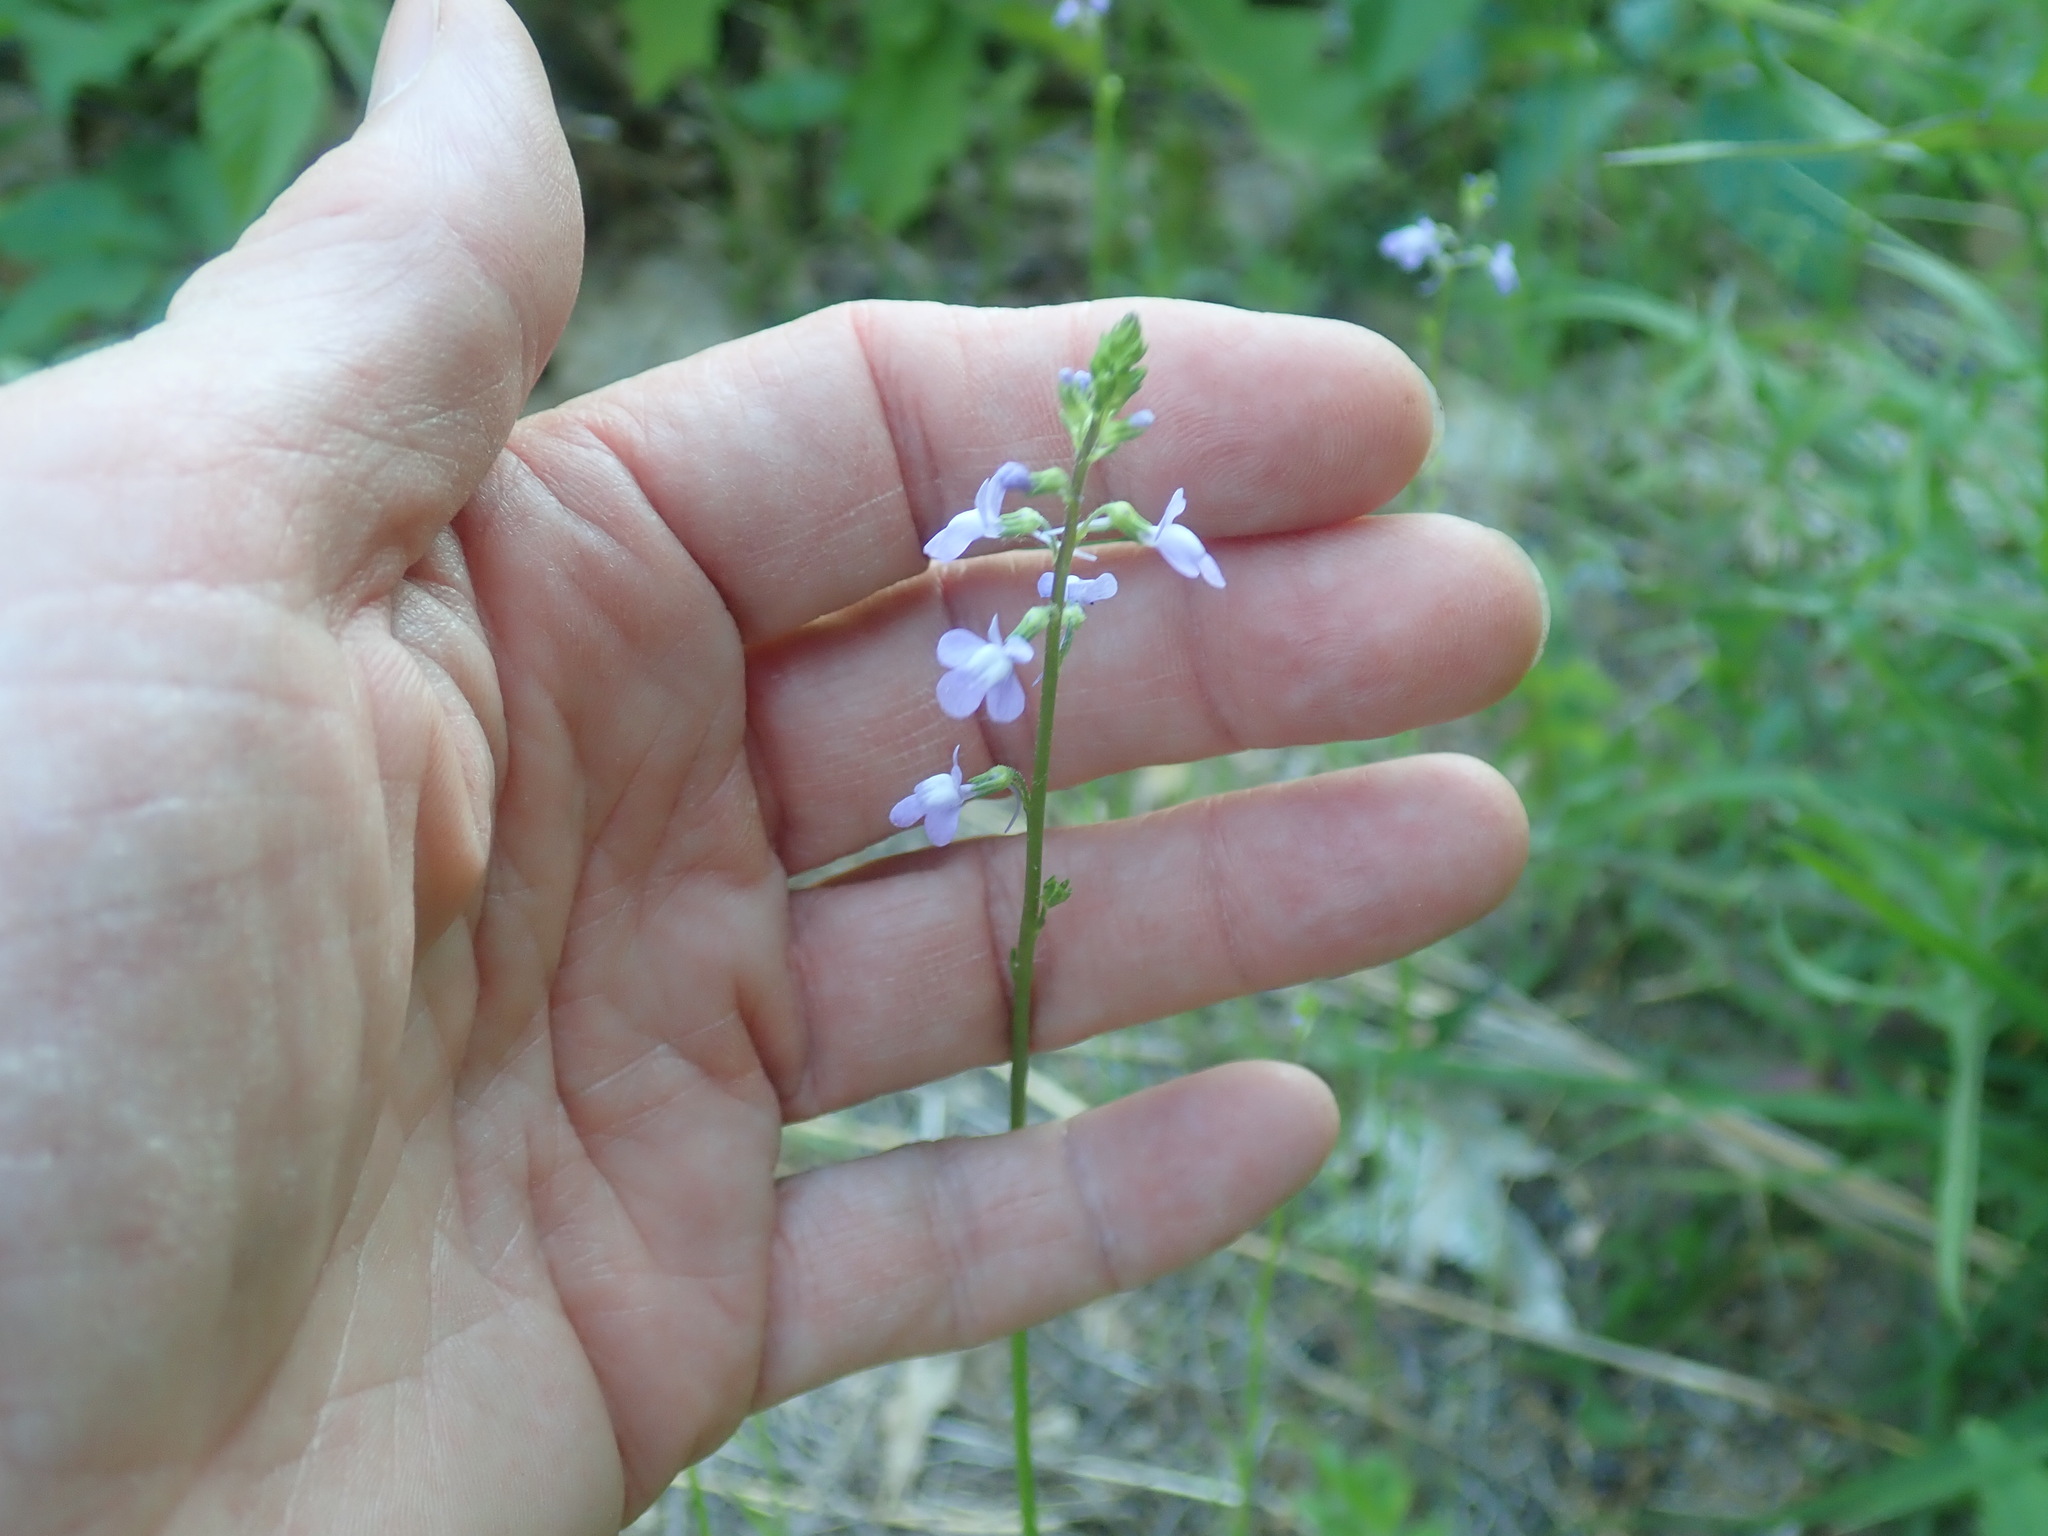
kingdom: Plantae
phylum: Tracheophyta
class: Magnoliopsida
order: Lamiales
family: Plantaginaceae
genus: Nuttallanthus
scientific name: Nuttallanthus canadensis
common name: Blue toadflax
